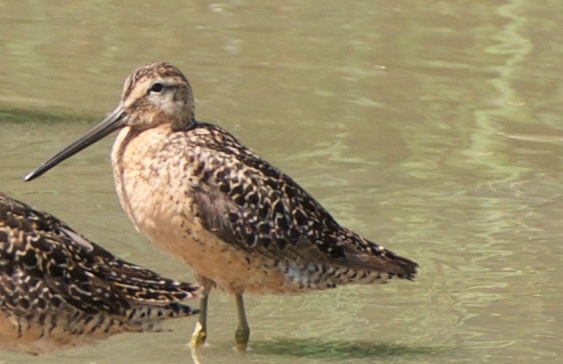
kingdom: Animalia
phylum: Chordata
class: Aves
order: Charadriiformes
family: Scolopacidae
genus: Limnodromus
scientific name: Limnodromus scolopaceus
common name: Long-billed dowitcher
